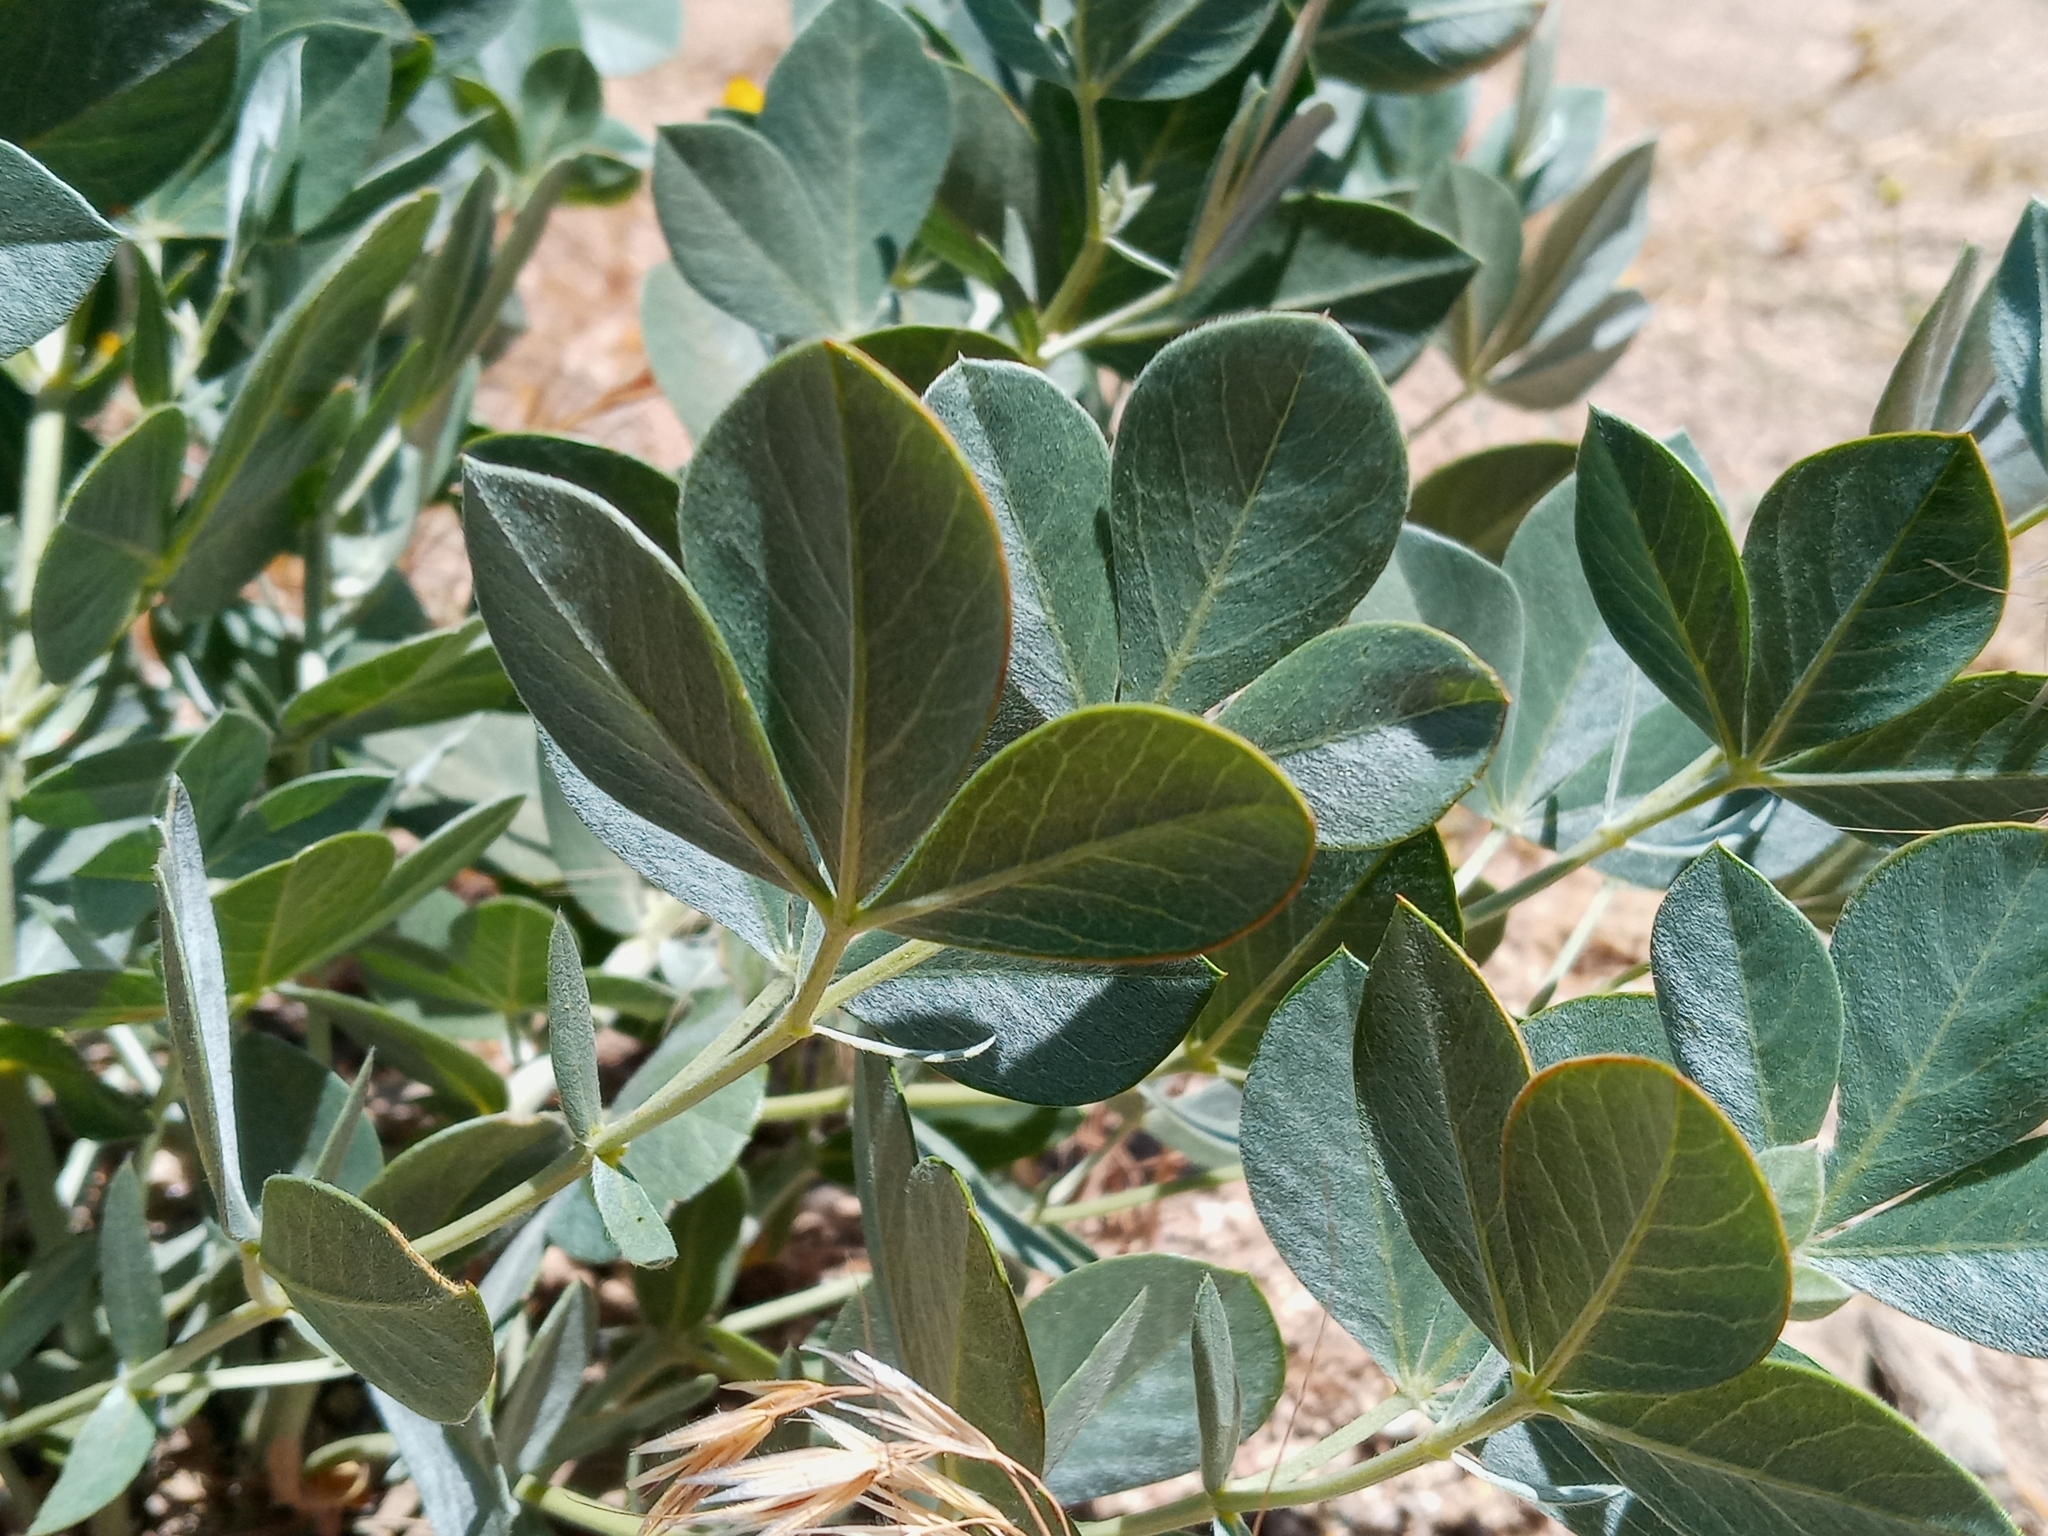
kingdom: Plantae
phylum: Tracheophyta
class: Magnoliopsida
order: Fabales
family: Fabaceae
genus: Thermopsis
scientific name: Thermopsis californica
